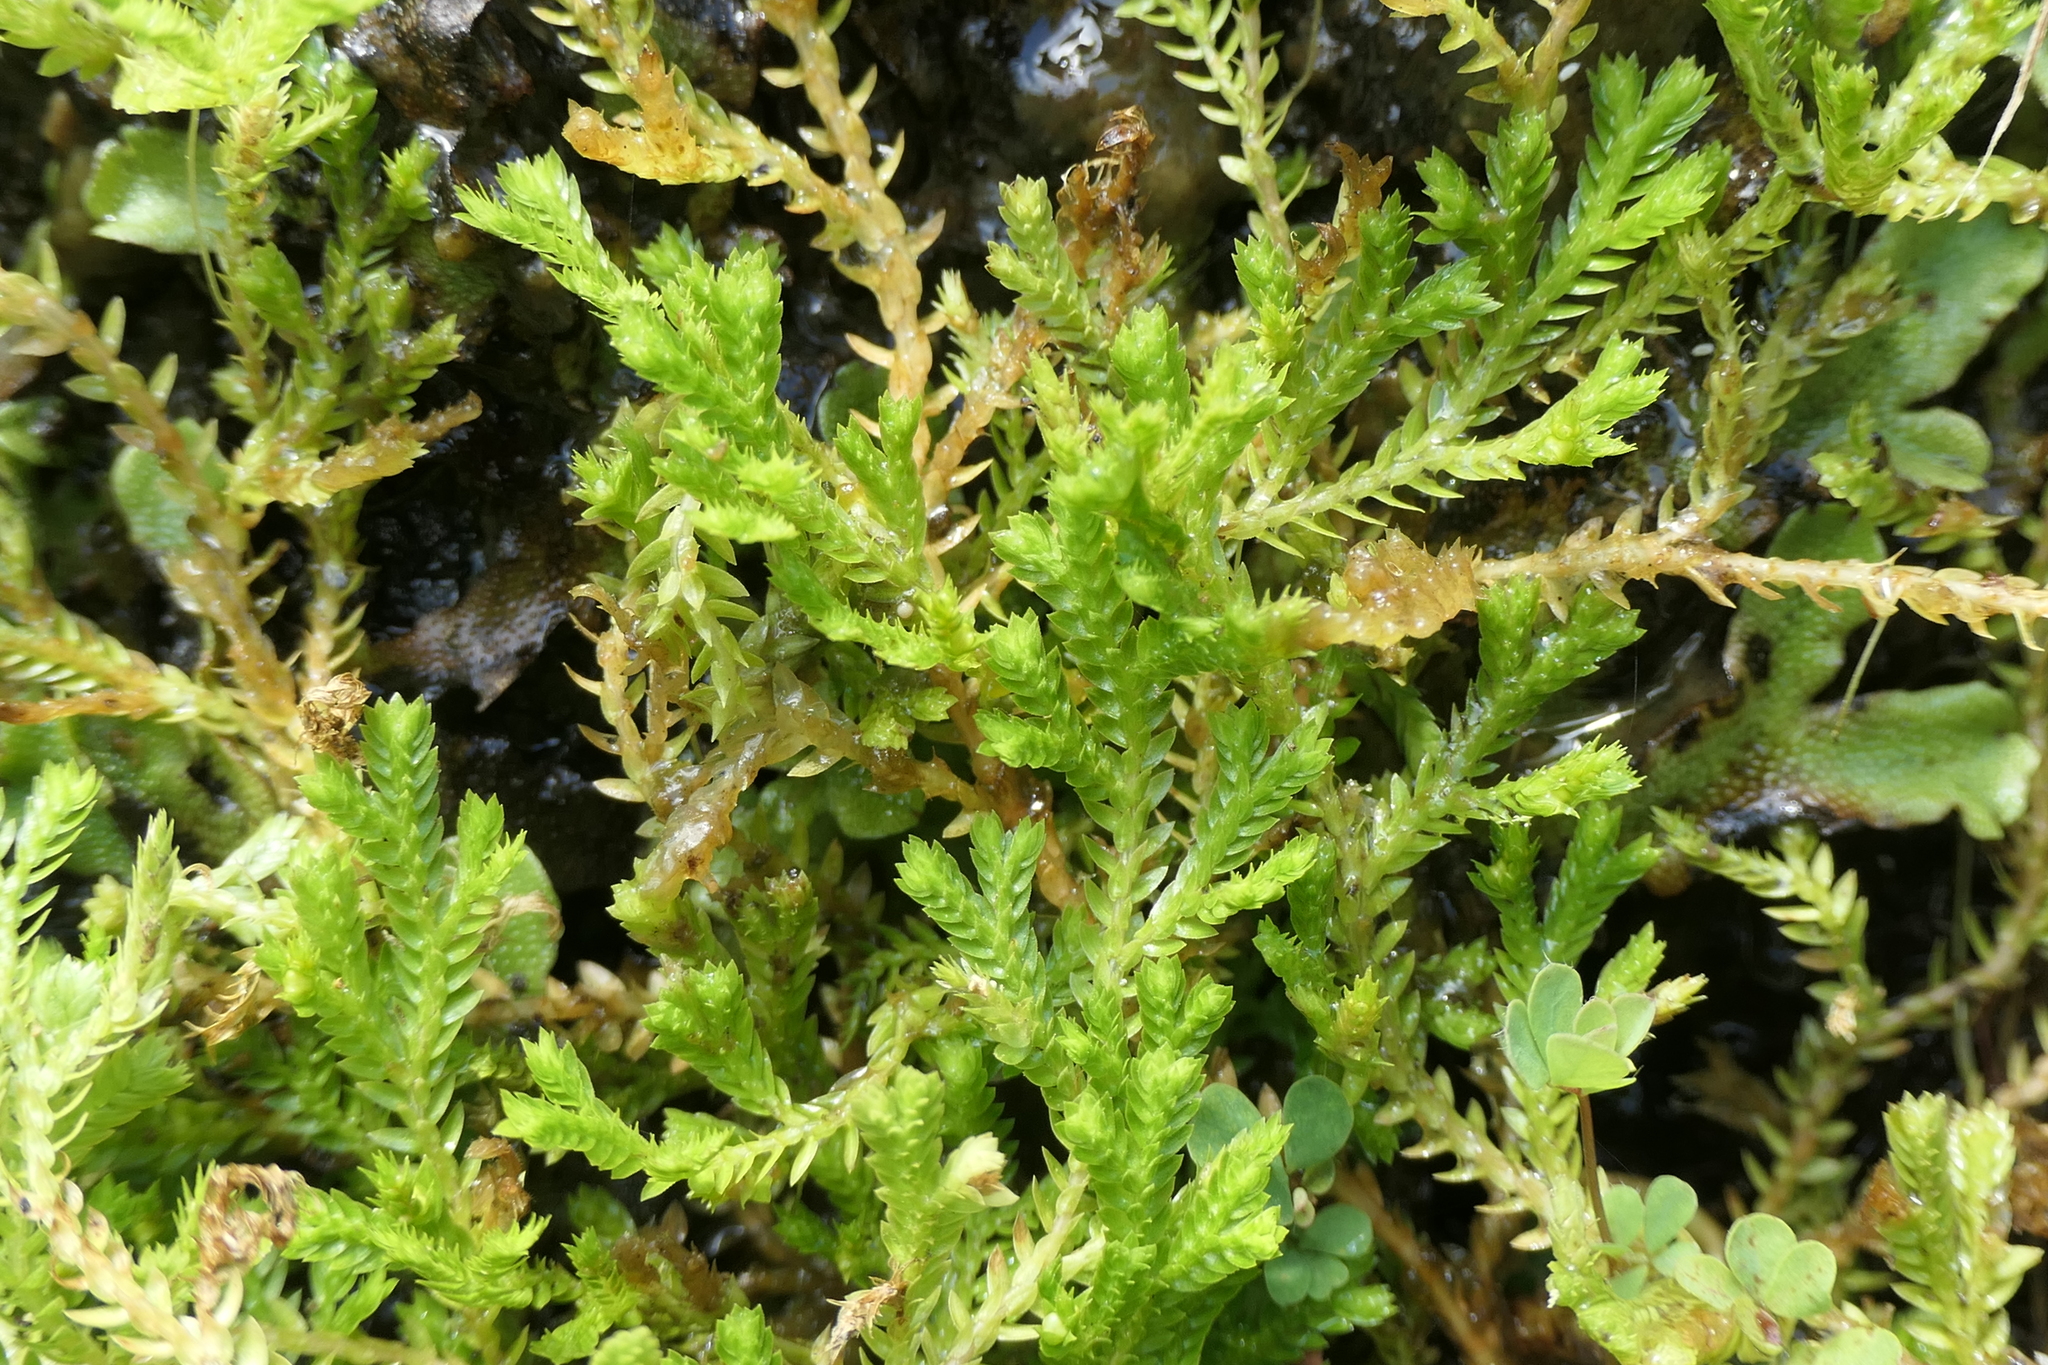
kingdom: Plantae
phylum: Tracheophyta
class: Lycopodiopsida
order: Selaginellales
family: Selaginellaceae
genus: Selaginella
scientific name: Selaginella kraussiana
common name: Krauss' spikemoss
